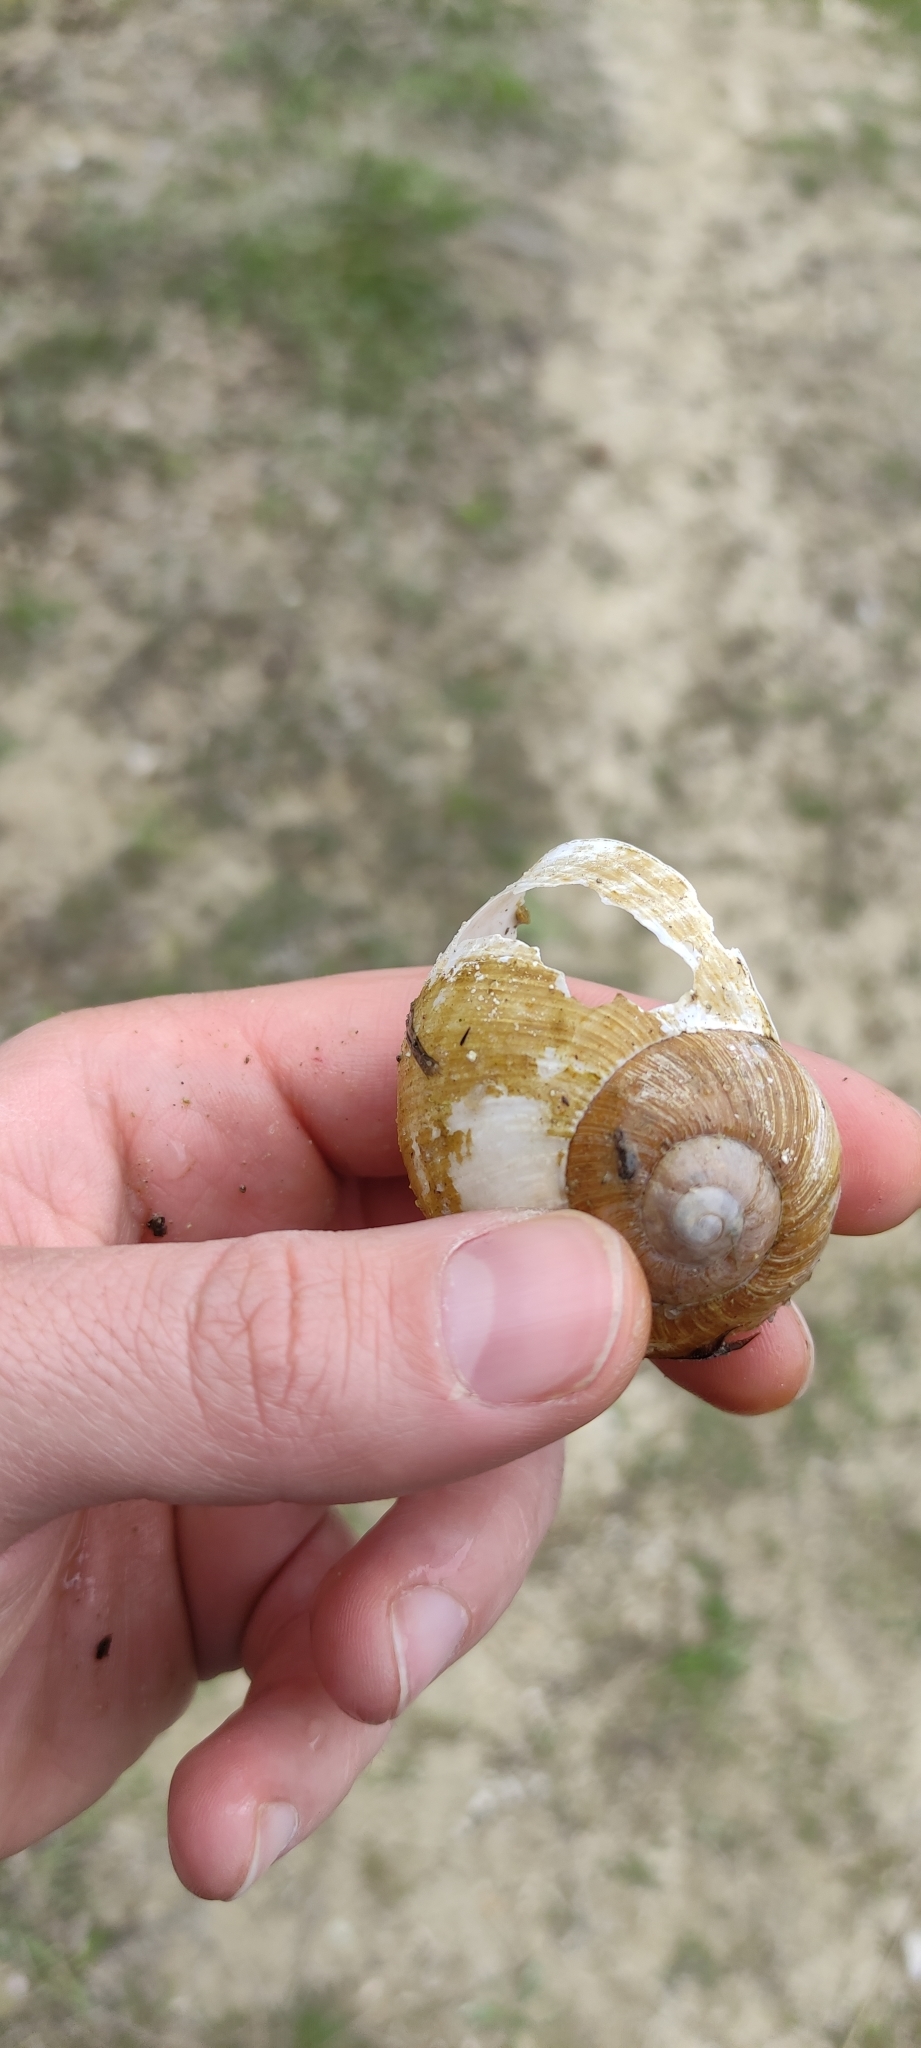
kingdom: Animalia
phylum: Mollusca
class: Gastropoda
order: Stylommatophora
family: Helicidae
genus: Helix
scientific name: Helix thessalica
